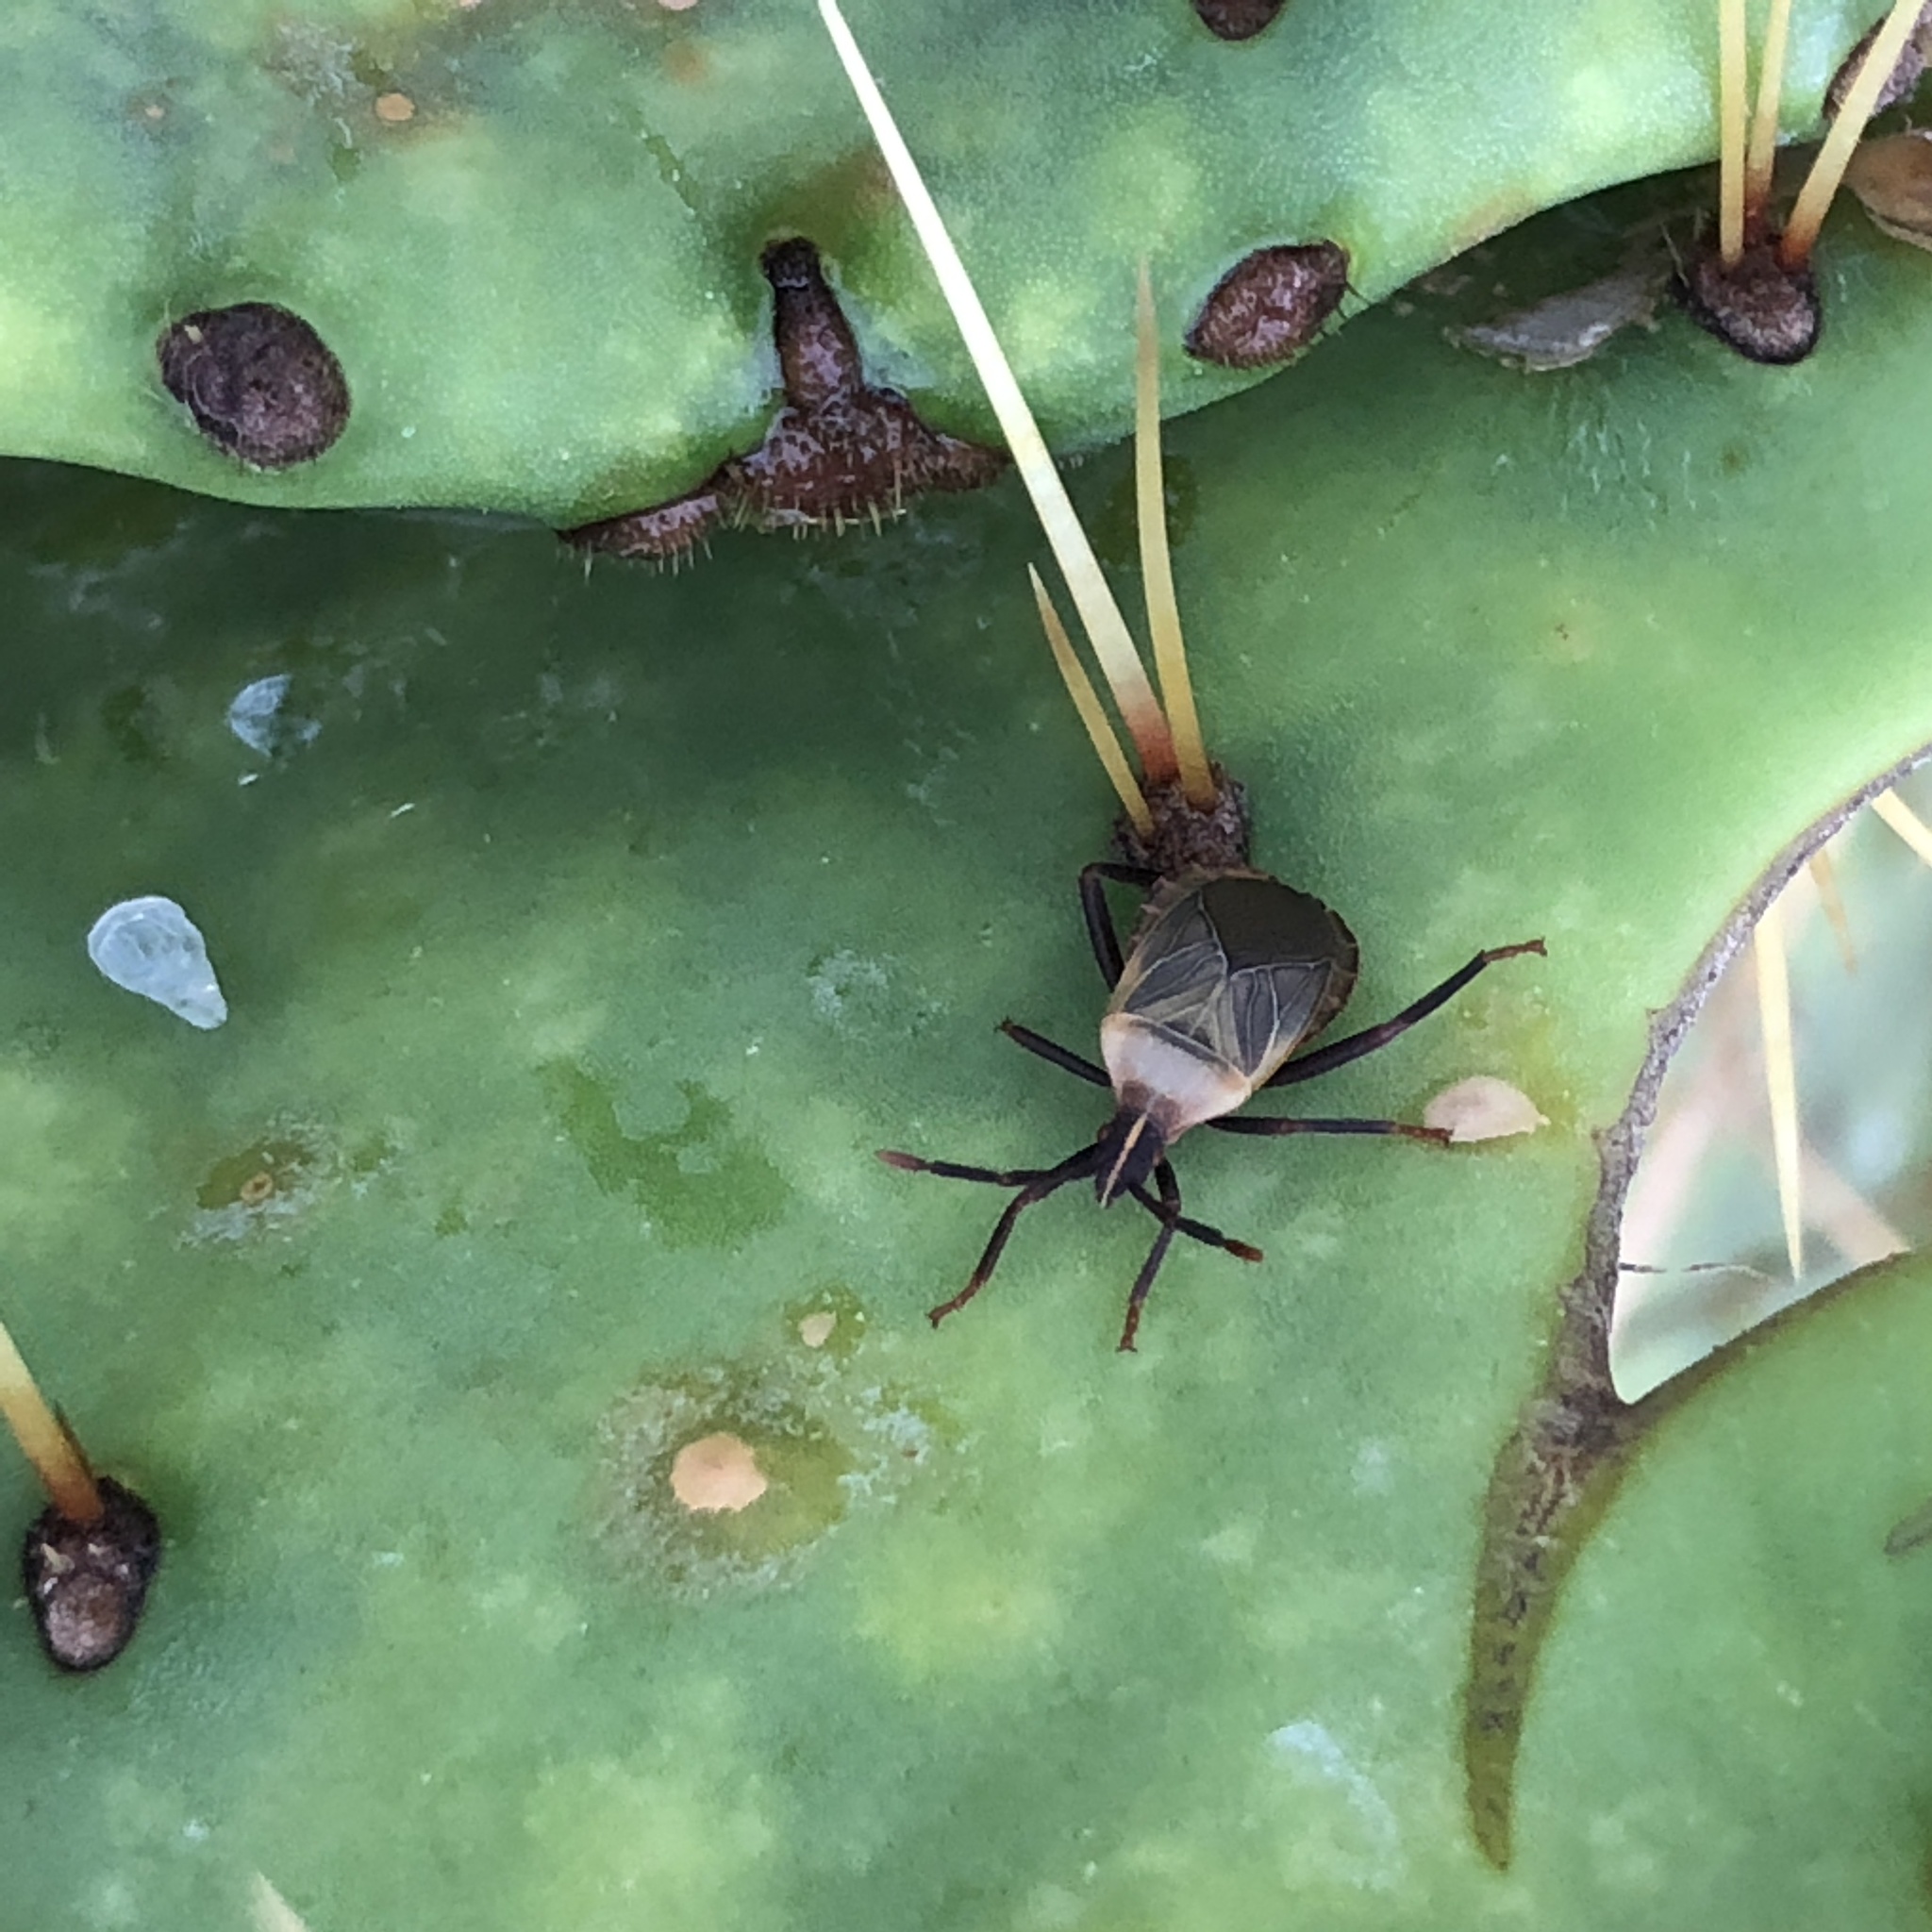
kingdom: Animalia
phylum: Arthropoda
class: Insecta
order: Hemiptera
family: Coreidae
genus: Chelinidea
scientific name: Chelinidea vittiger
